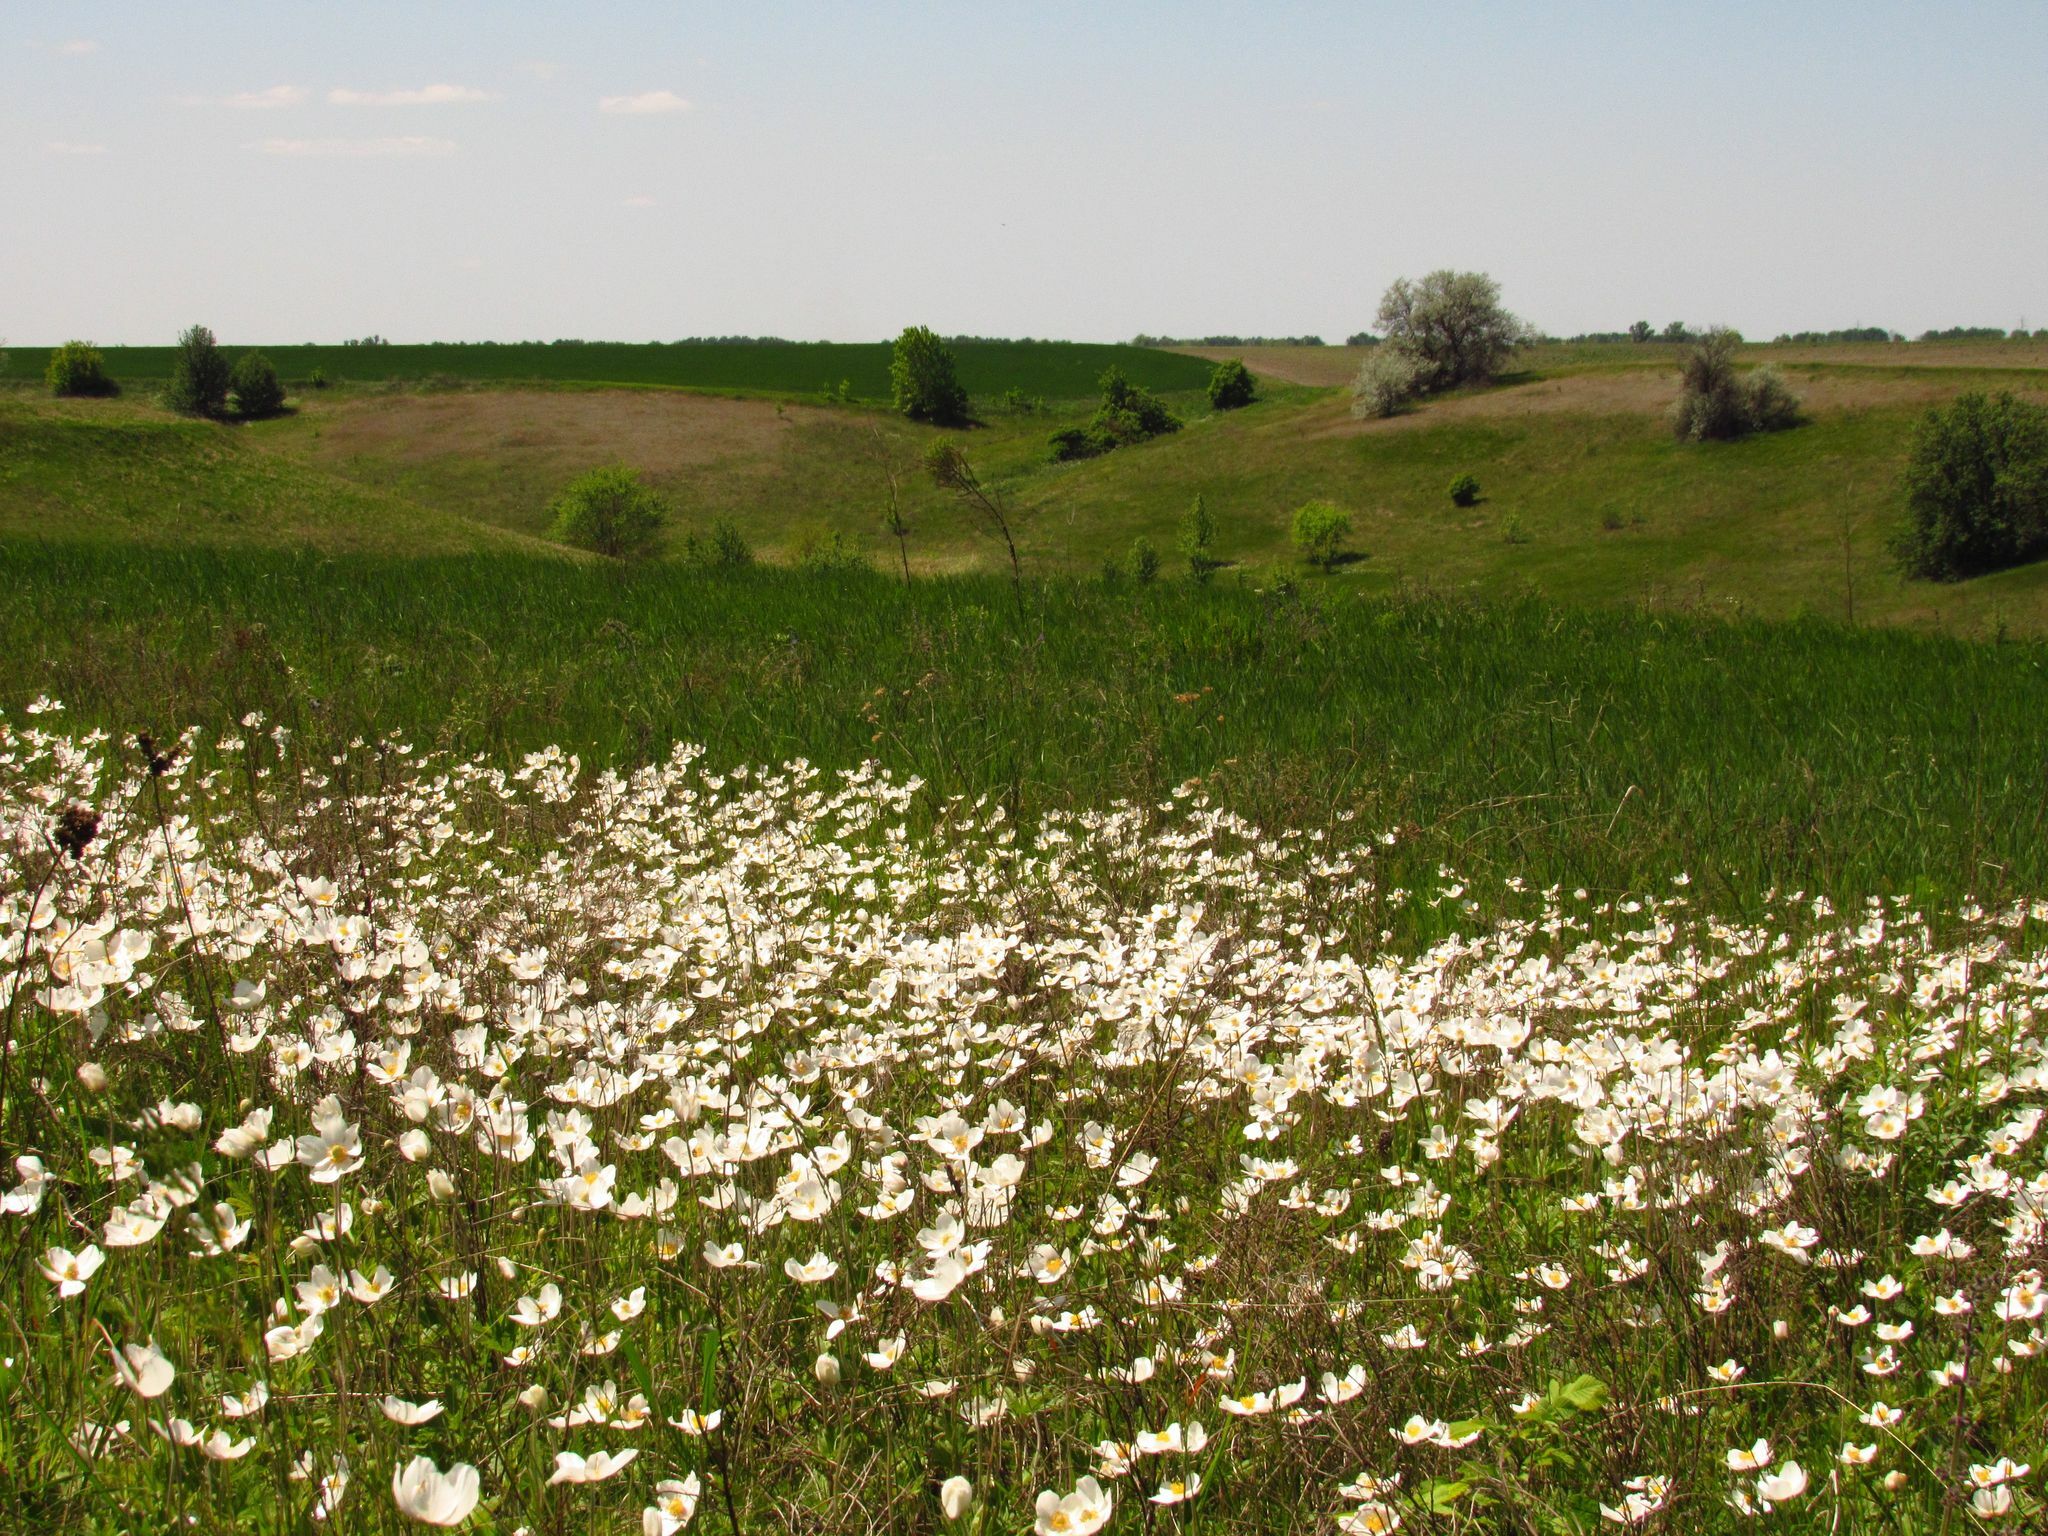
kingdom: Plantae
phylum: Tracheophyta
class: Magnoliopsida
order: Ranunculales
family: Ranunculaceae
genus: Anemone
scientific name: Anemone sylvestris
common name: Snowdrop anemone
